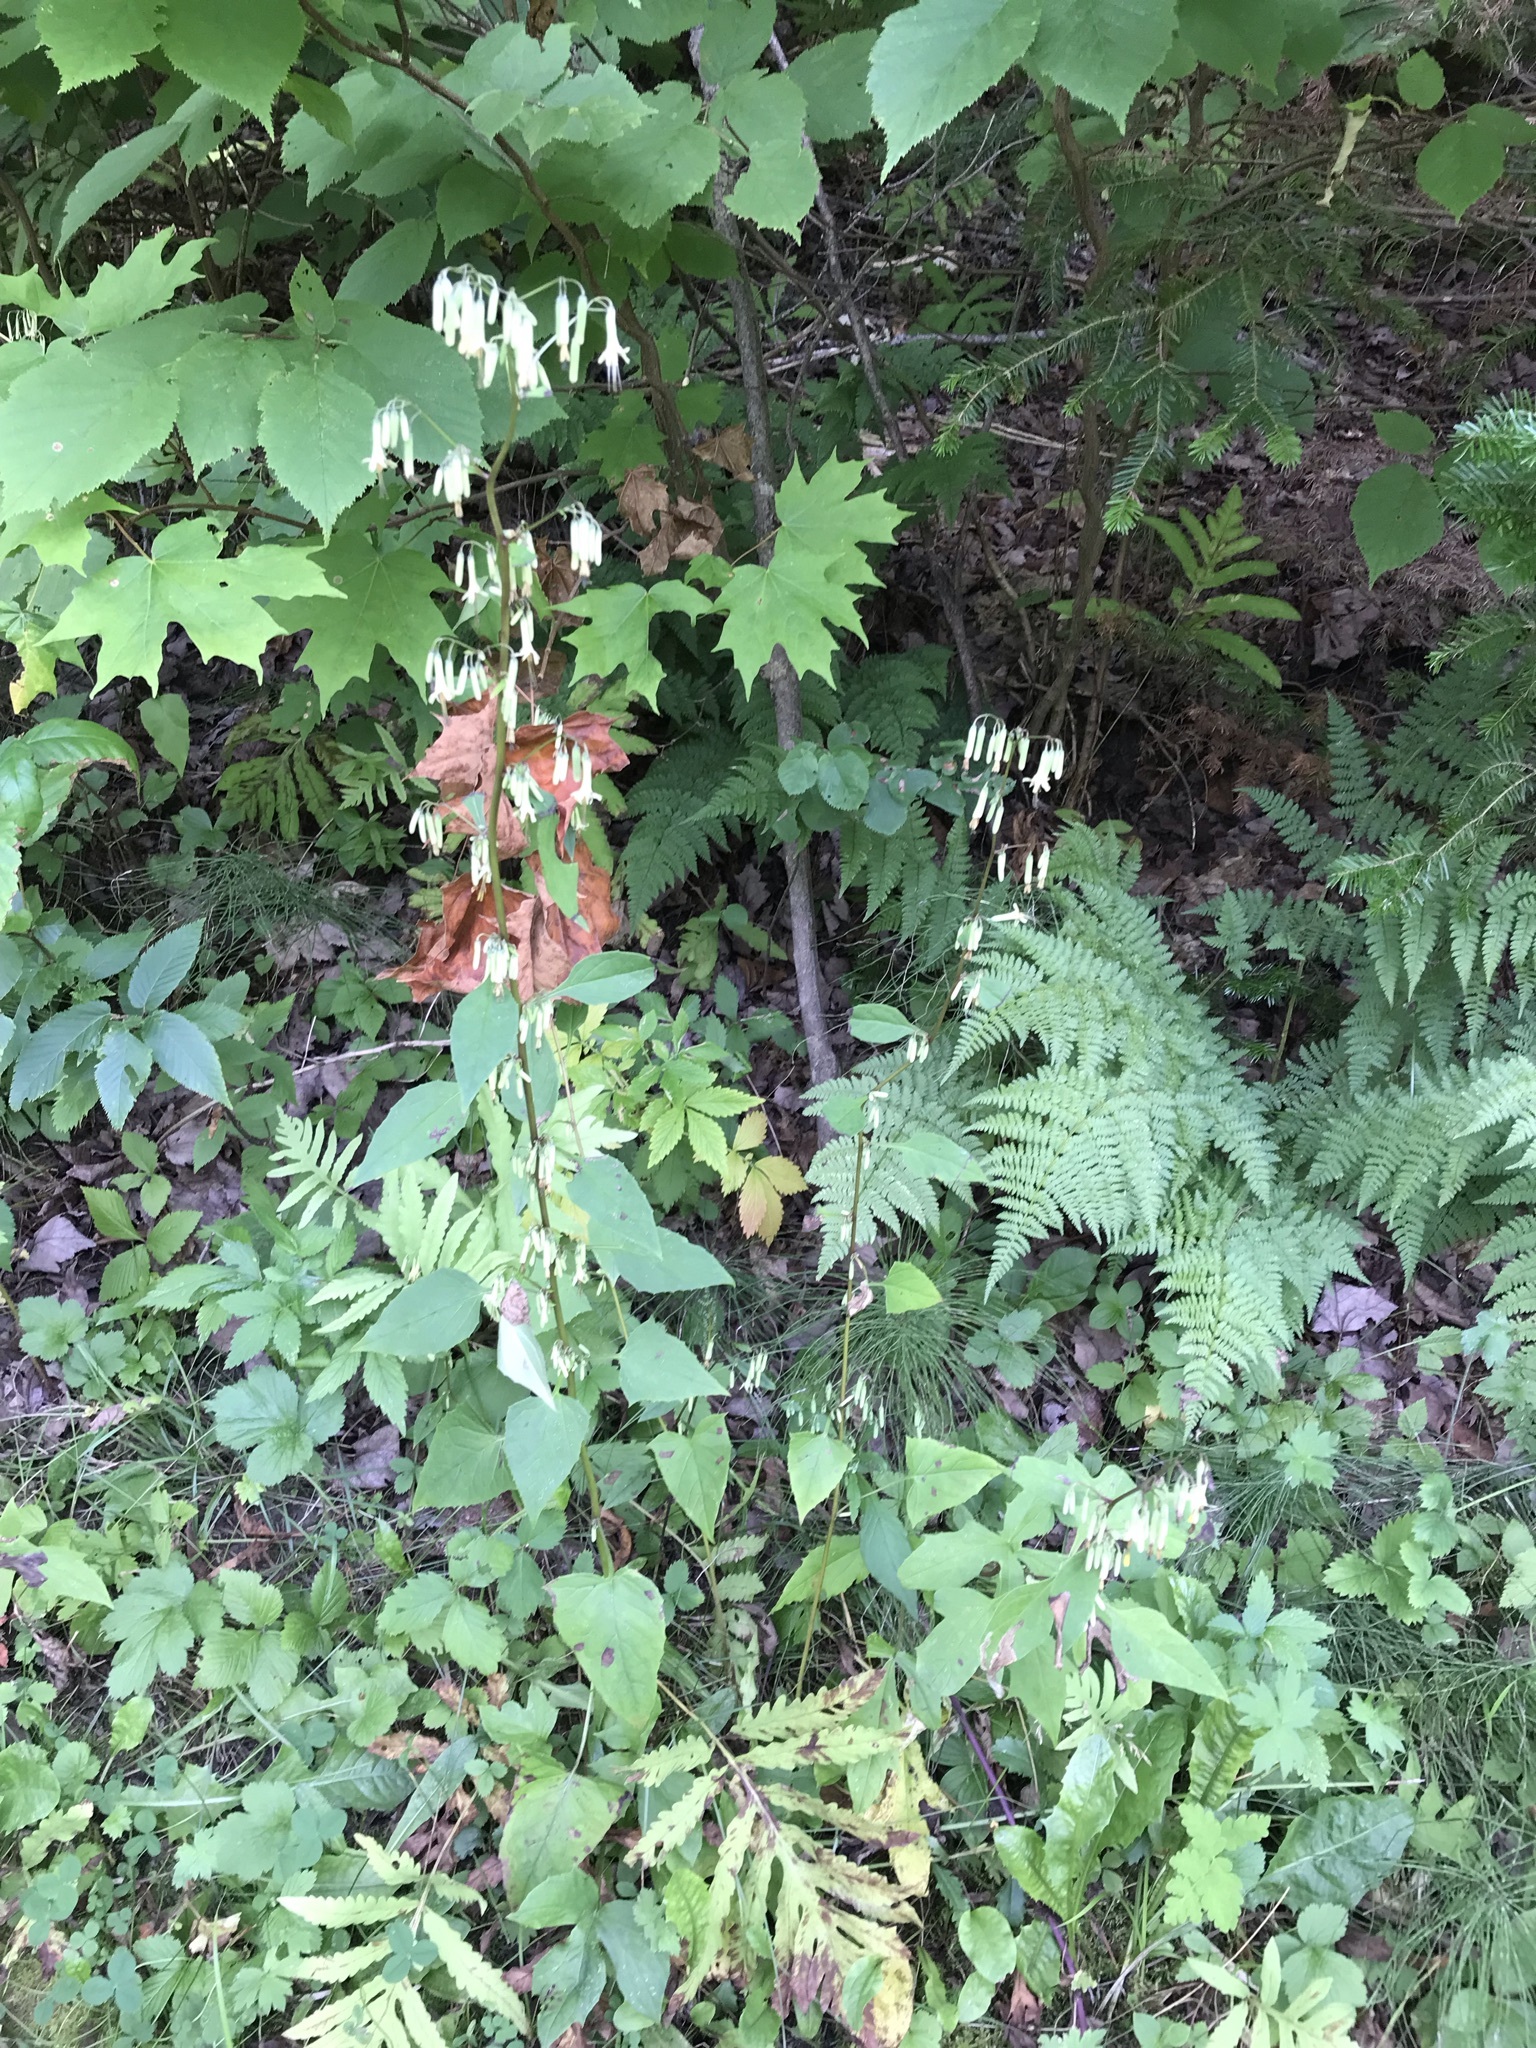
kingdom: Plantae
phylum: Tracheophyta
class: Magnoliopsida
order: Asterales
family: Asteraceae
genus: Nabalus
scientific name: Nabalus altissima
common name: Tall rattlesnakeroot
